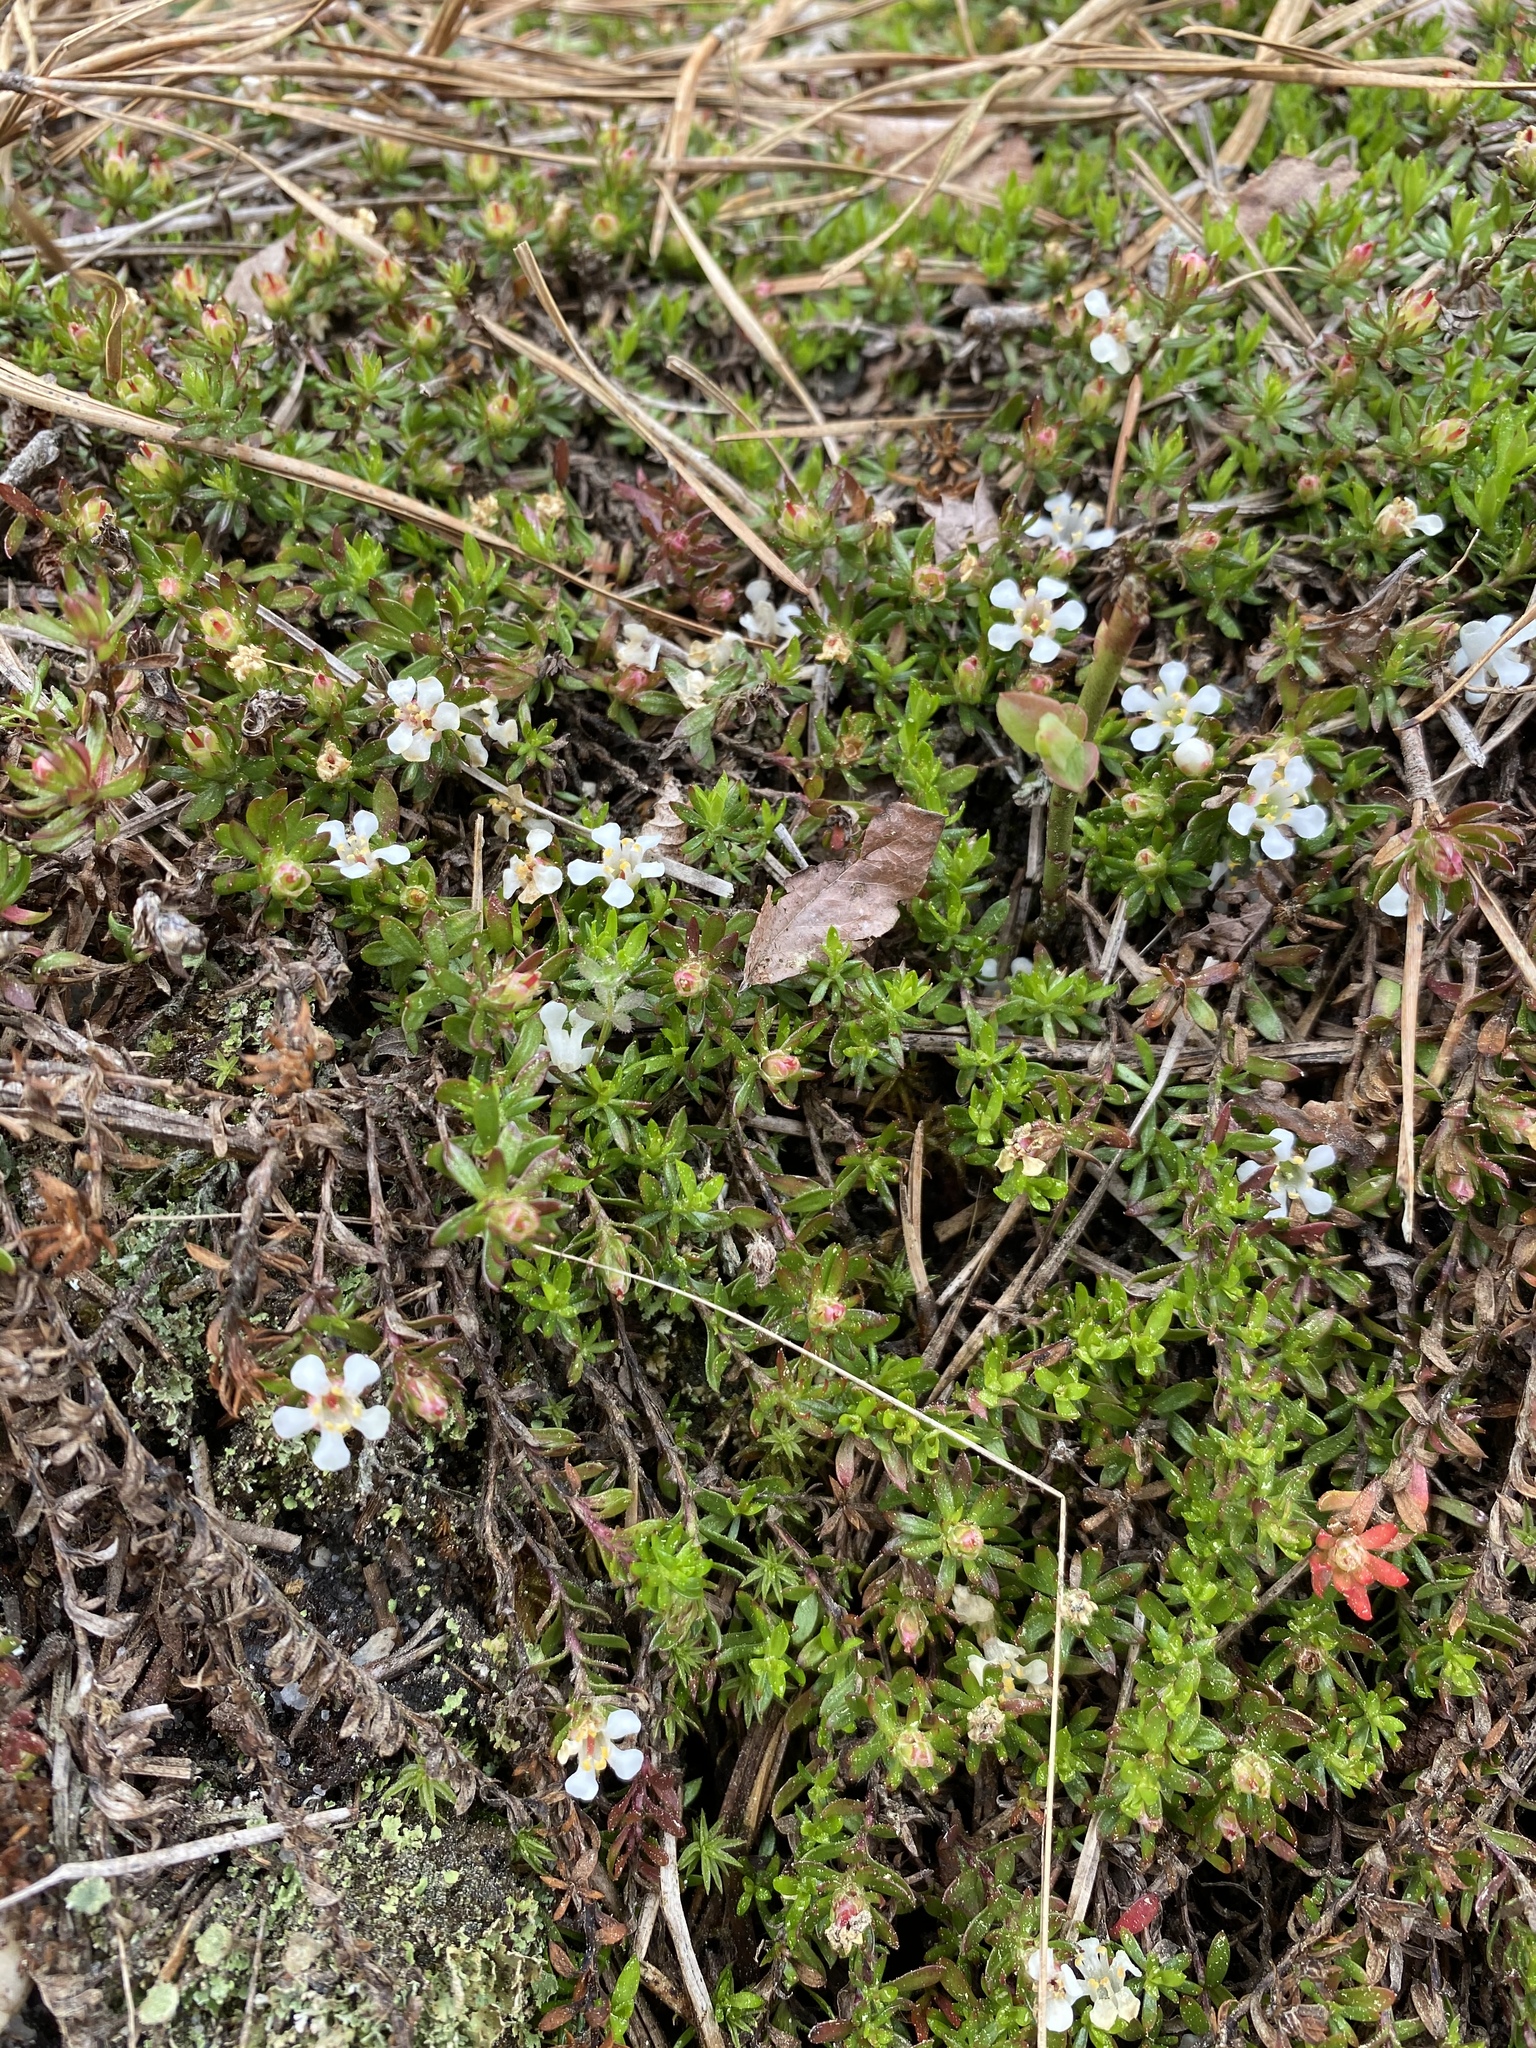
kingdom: Plantae
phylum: Tracheophyta
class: Magnoliopsida
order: Ericales
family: Diapensiaceae
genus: Pyxidanthera
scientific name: Pyxidanthera barbulata
